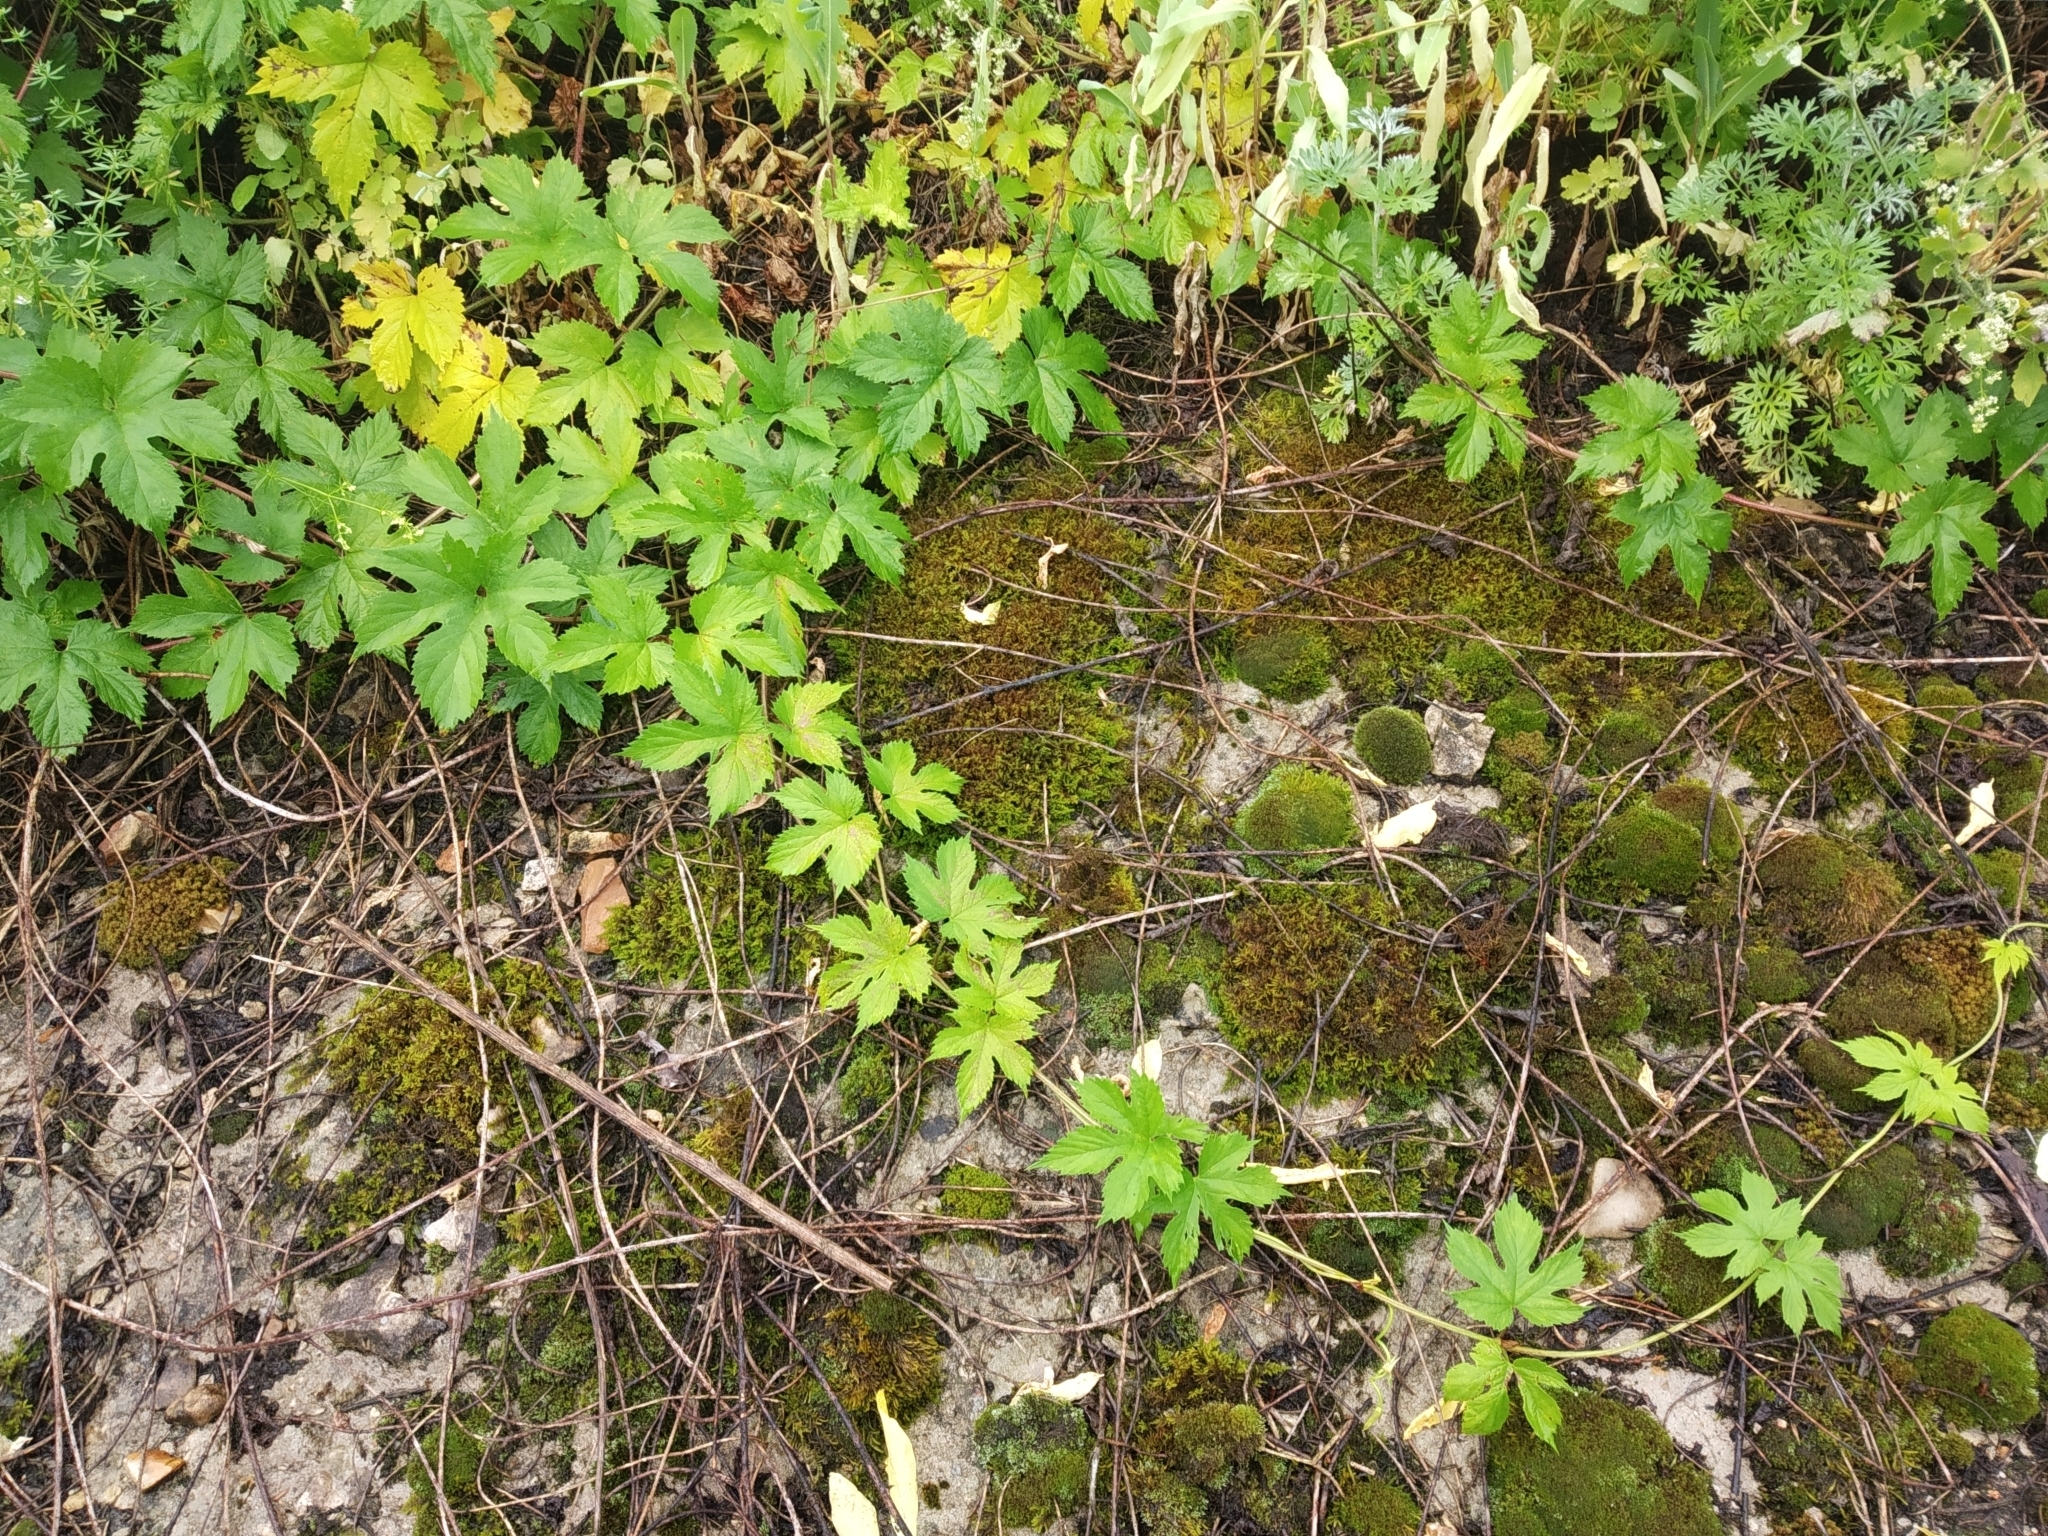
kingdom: Plantae
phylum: Tracheophyta
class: Magnoliopsida
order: Rosales
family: Cannabaceae
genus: Humulus
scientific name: Humulus lupulus
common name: Hop
